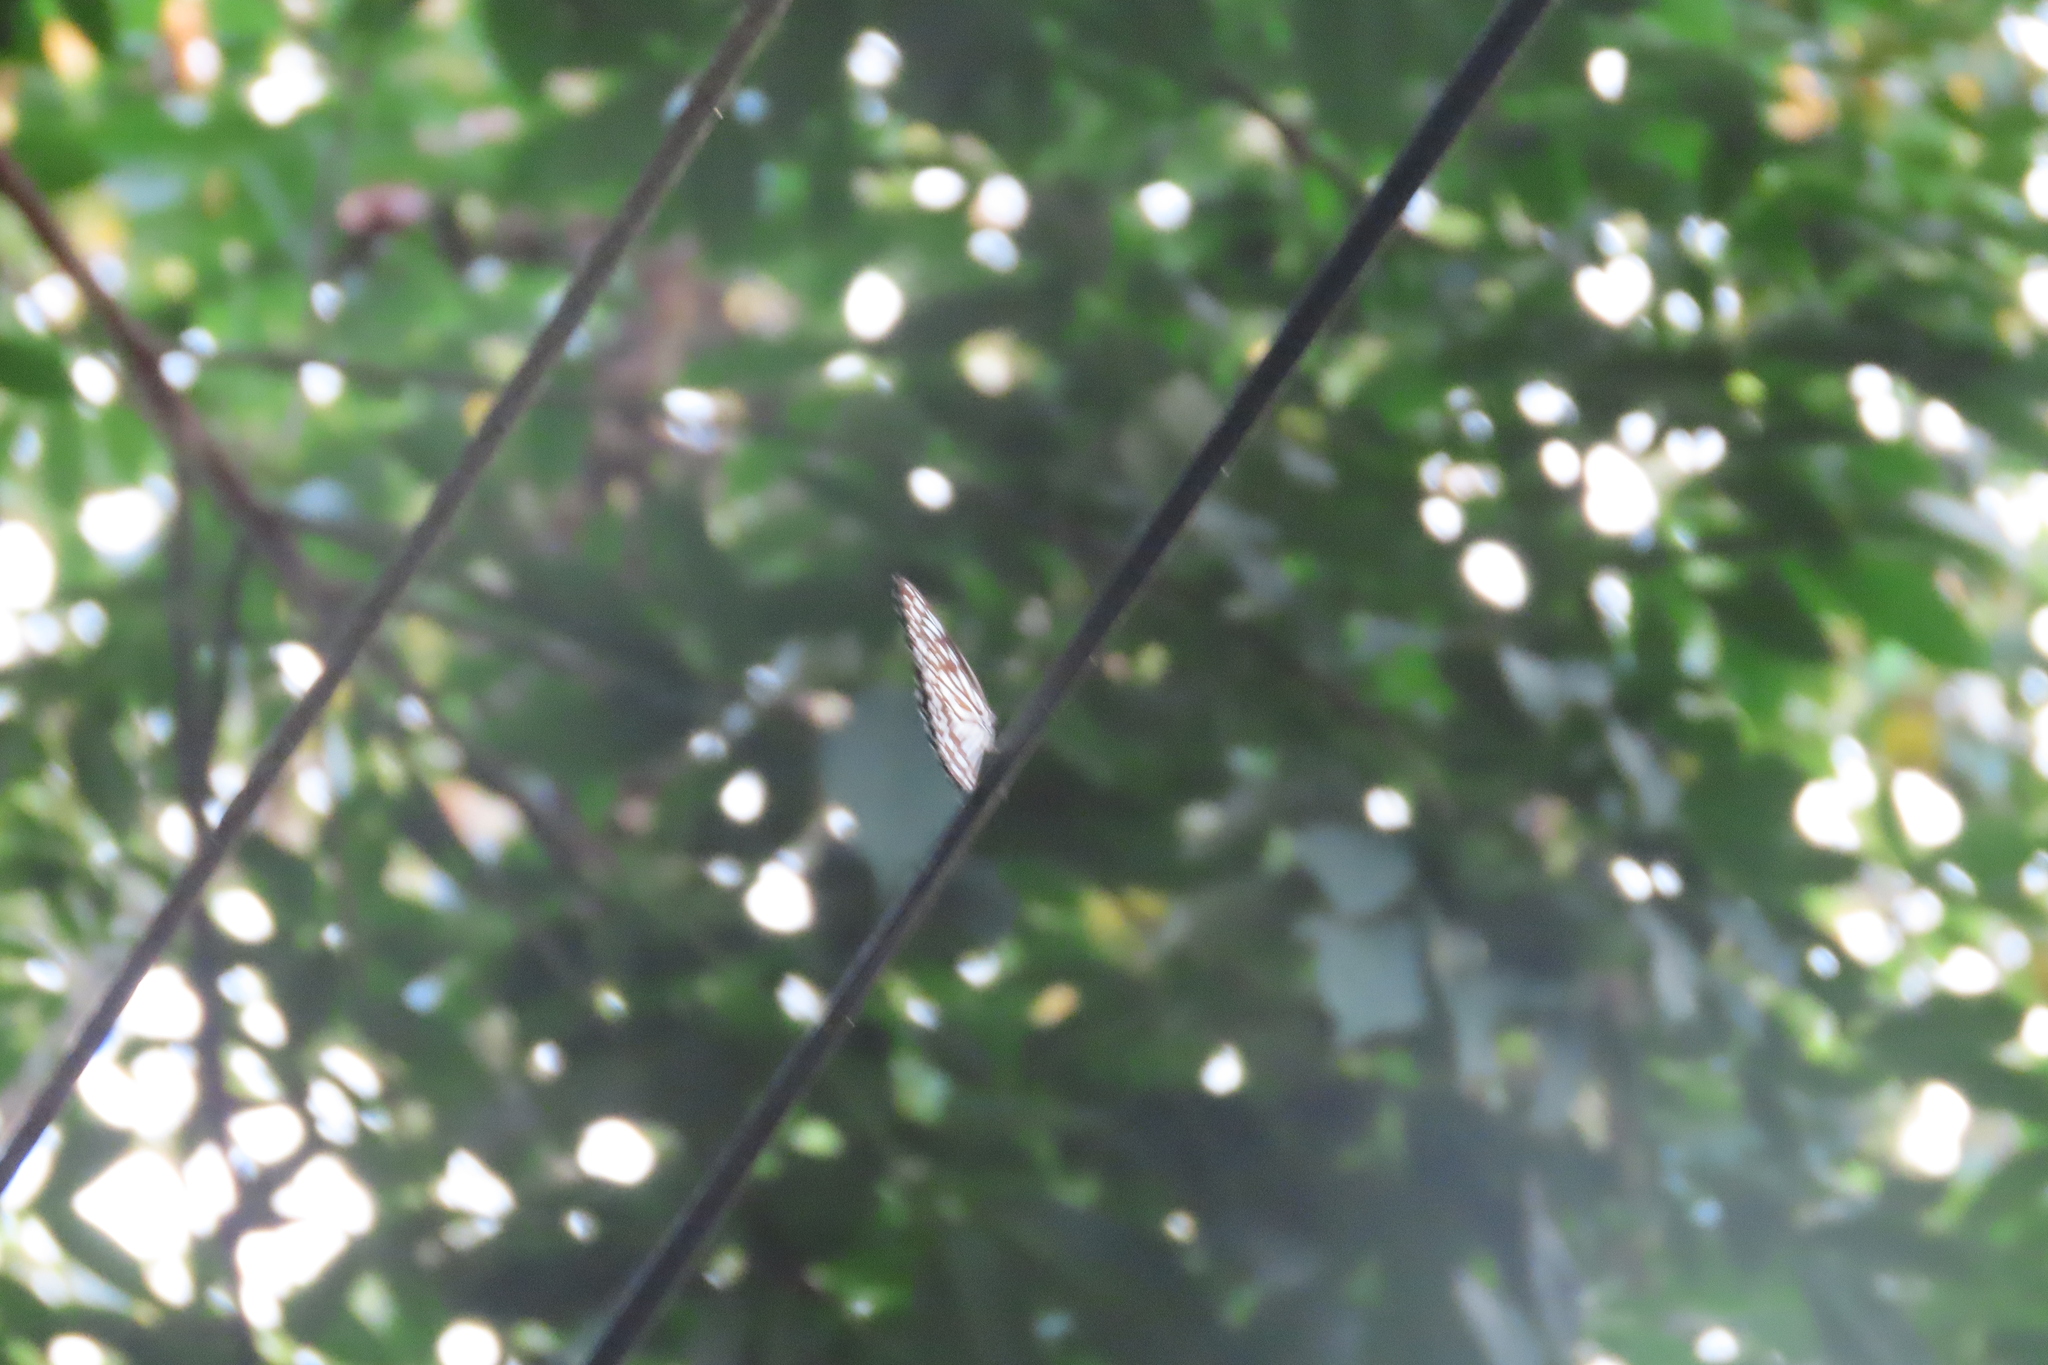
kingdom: Animalia
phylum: Arthropoda
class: Insecta
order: Lepidoptera
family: Nymphalidae
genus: Tirumala
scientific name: Tirumala septentrionis
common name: Dark blue tiger butterfly
